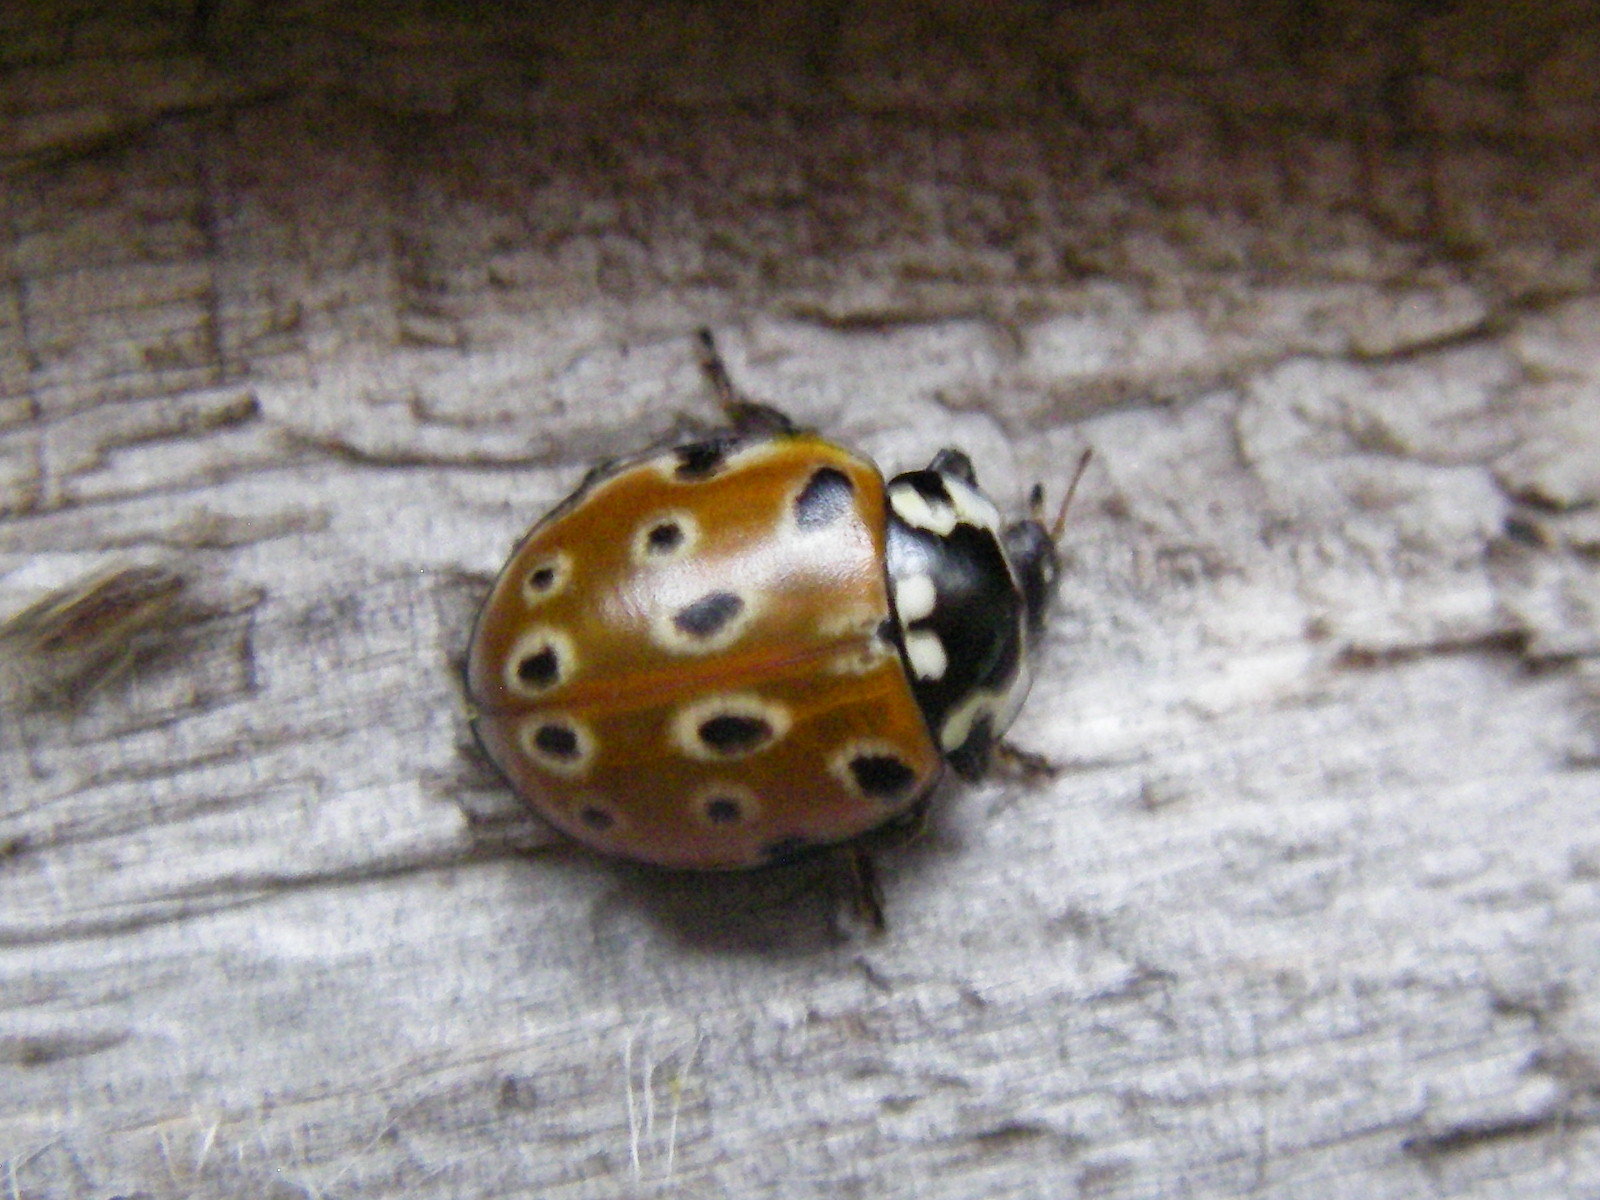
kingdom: Animalia
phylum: Arthropoda
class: Insecta
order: Coleoptera
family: Coccinellidae
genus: Anatis
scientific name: Anatis ocellata
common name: Eyed ladybird
